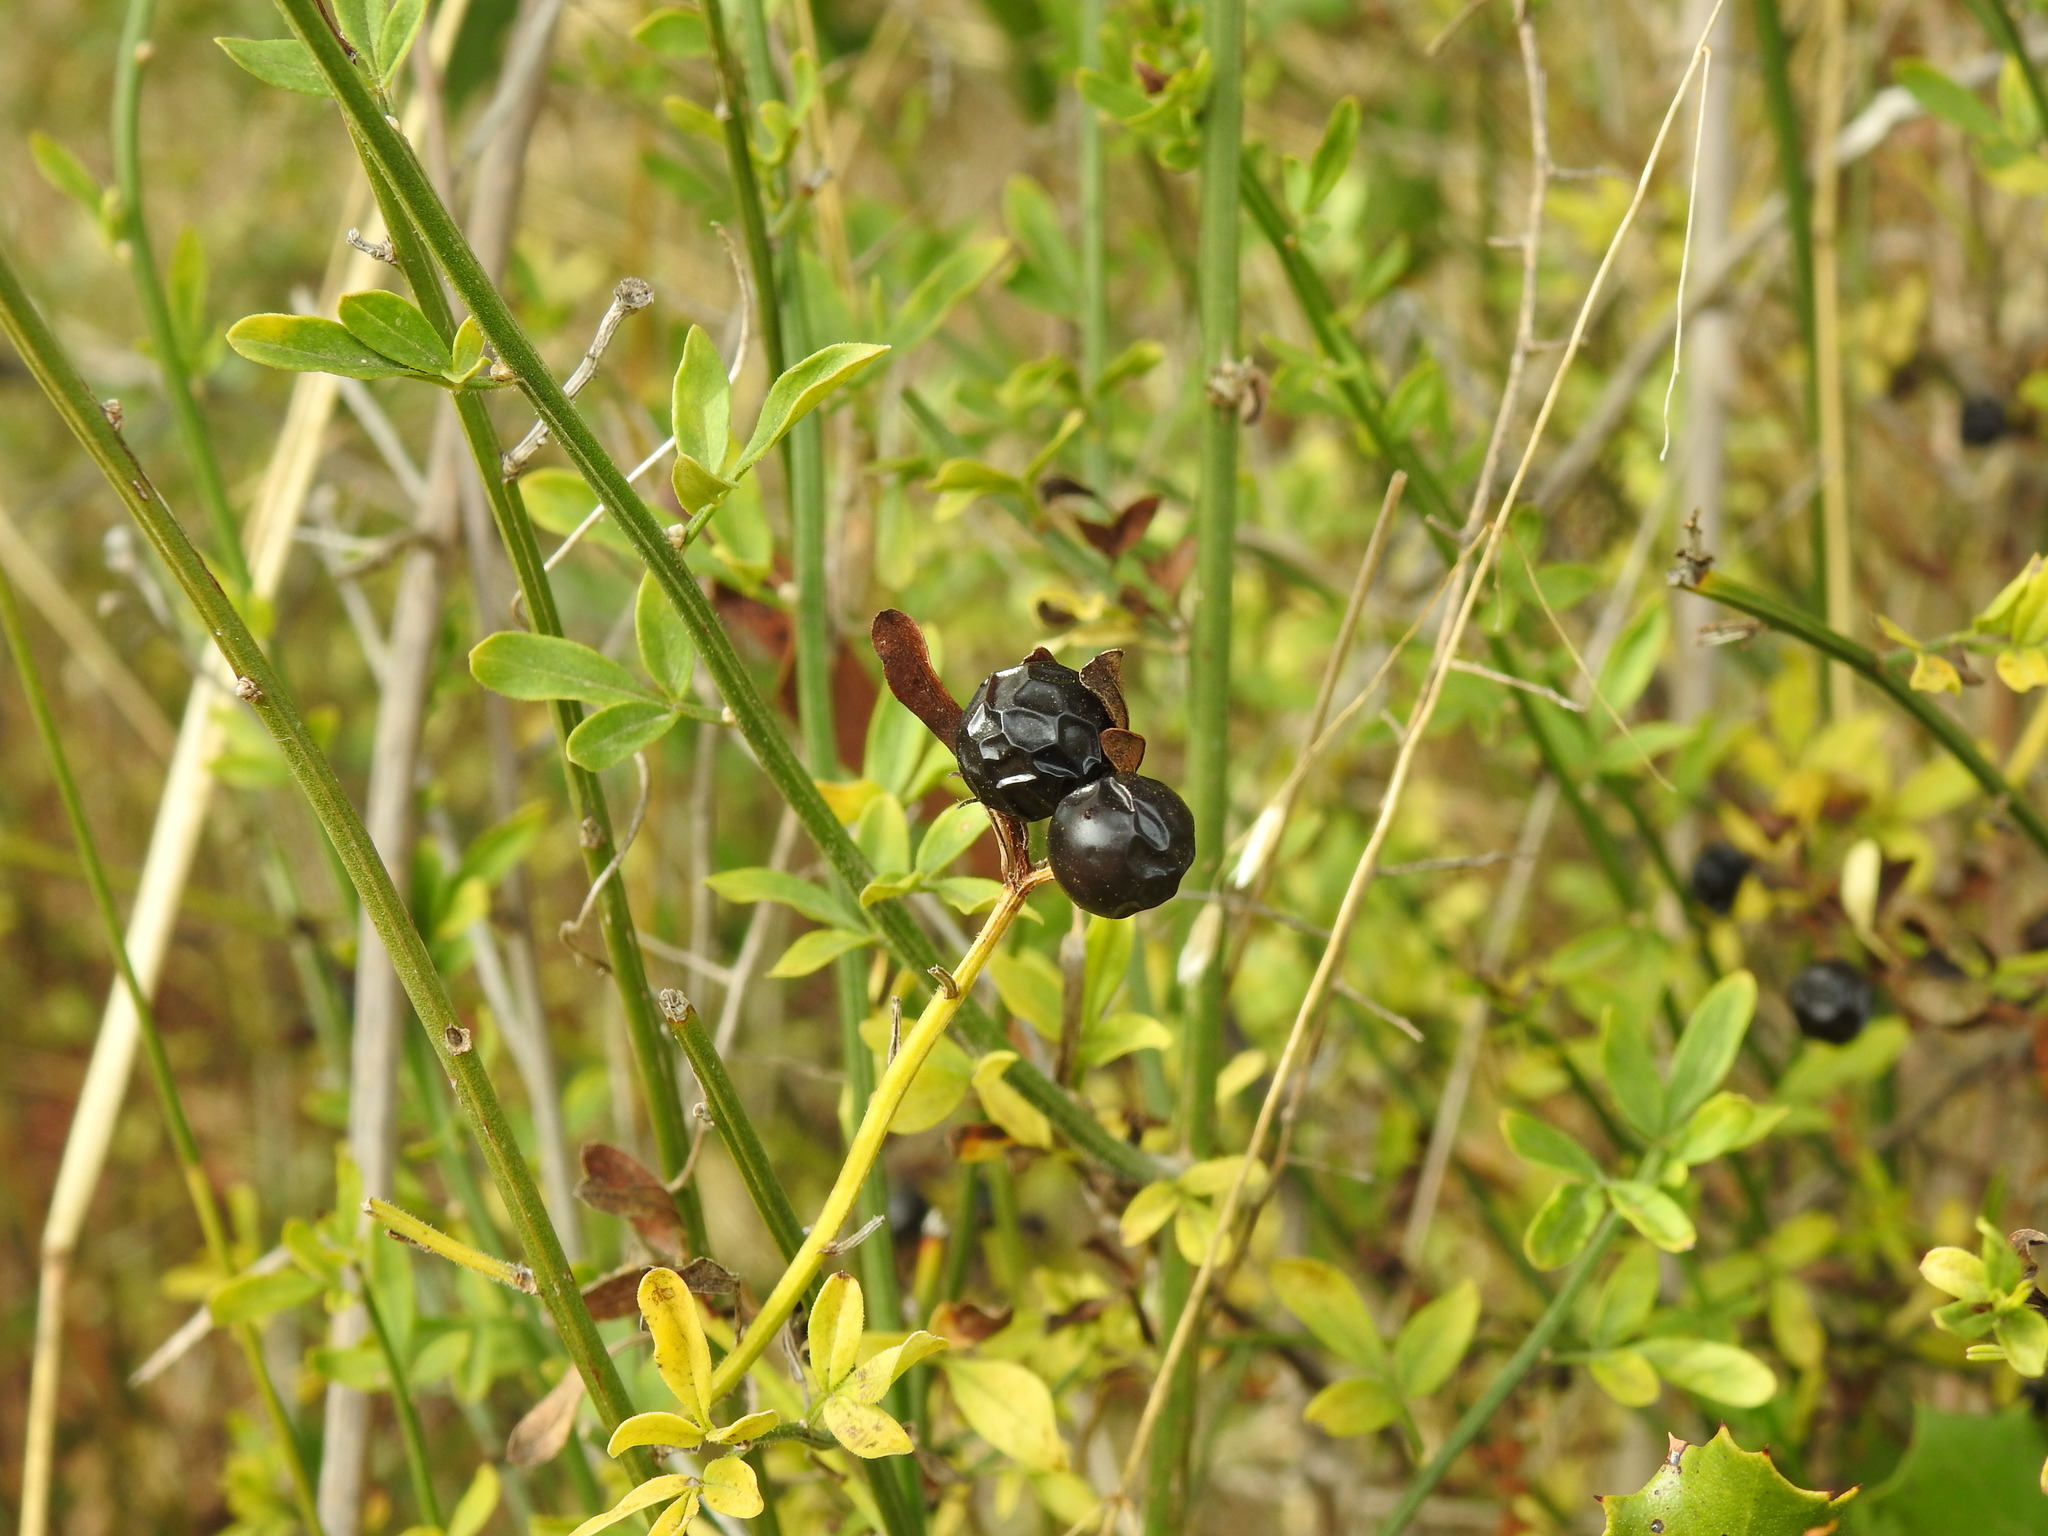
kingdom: Plantae
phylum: Tracheophyta
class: Magnoliopsida
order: Lamiales
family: Oleaceae
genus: Chrysojasminum
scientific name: Chrysojasminum fruticans
